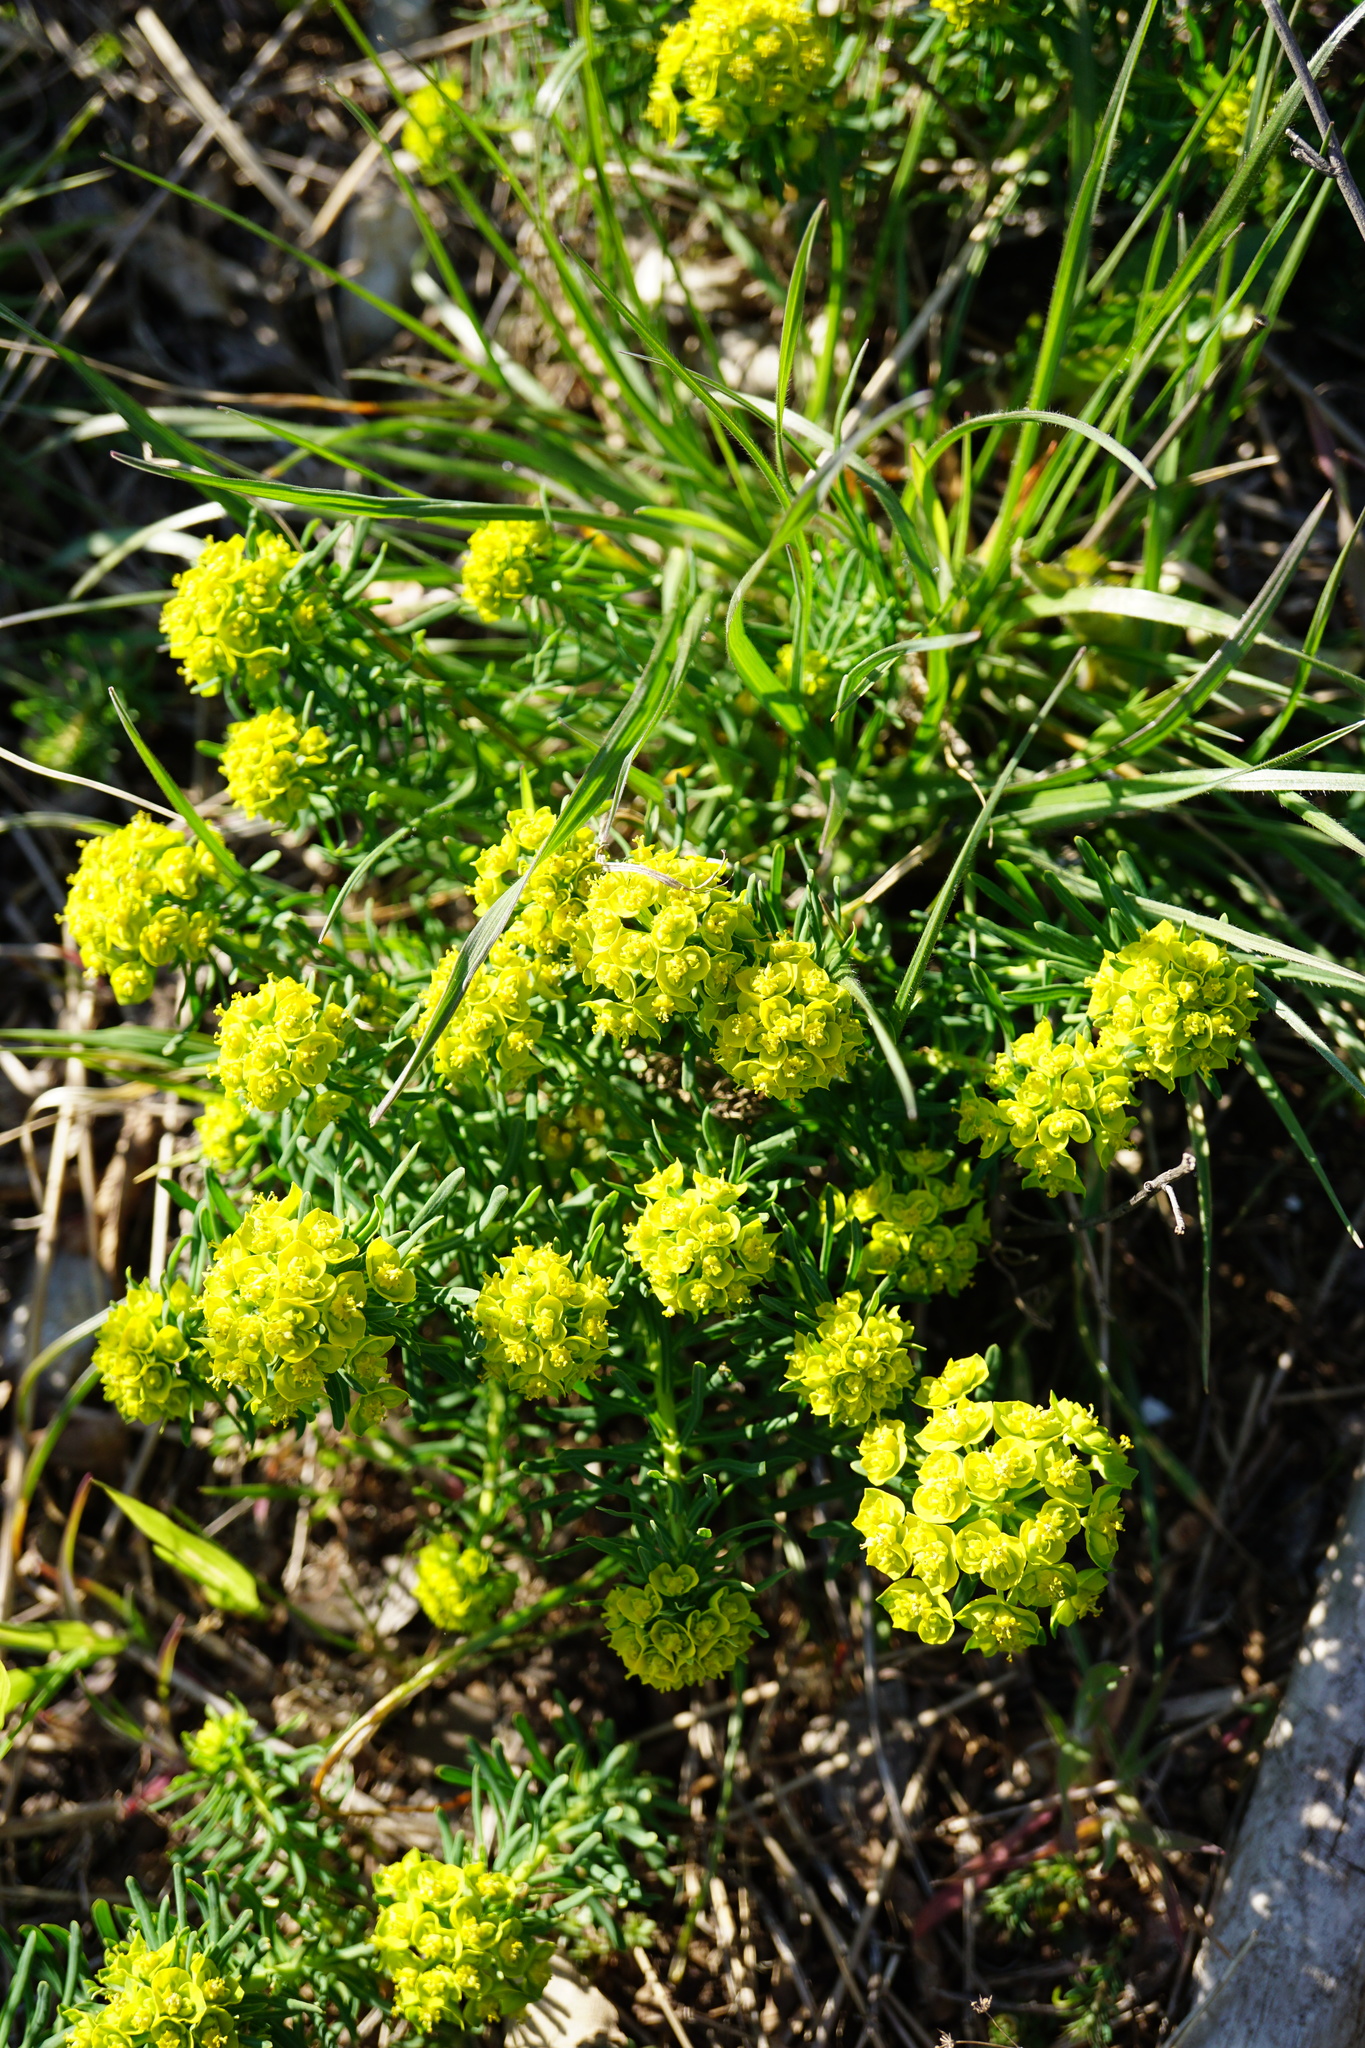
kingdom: Plantae
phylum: Tracheophyta
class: Magnoliopsida
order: Malpighiales
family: Euphorbiaceae
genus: Euphorbia
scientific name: Euphorbia cyparissias
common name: Cypress spurge
